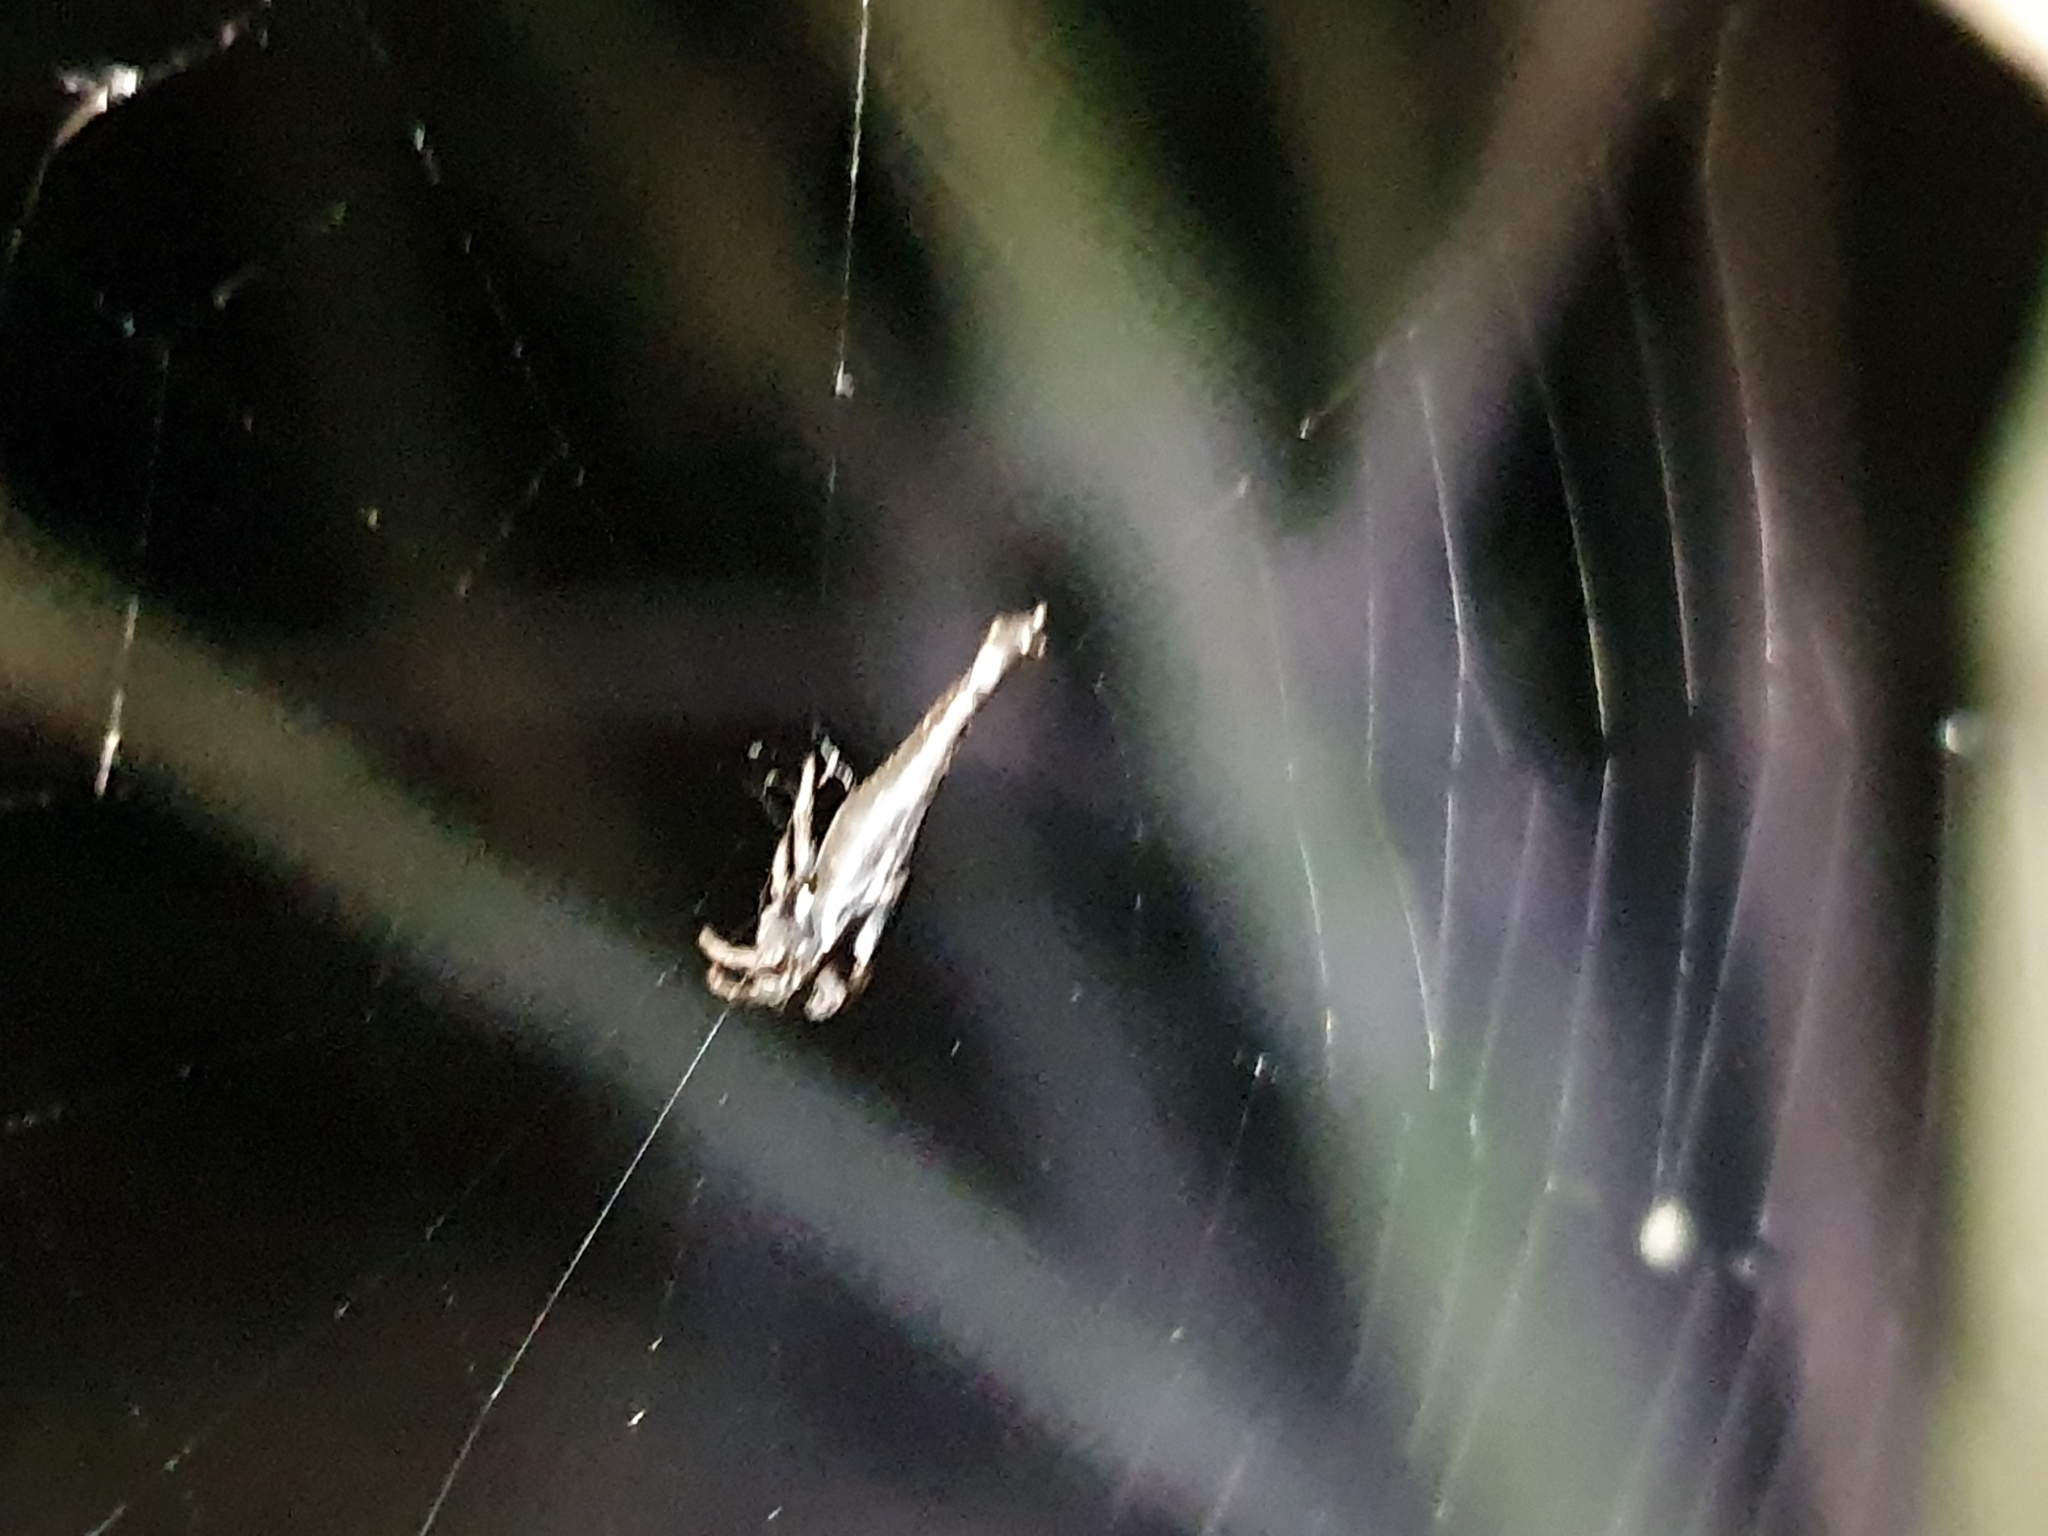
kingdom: Animalia
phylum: Arthropoda
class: Arachnida
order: Araneae
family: Araneidae
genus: Arachnura
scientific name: Arachnura feredayi
